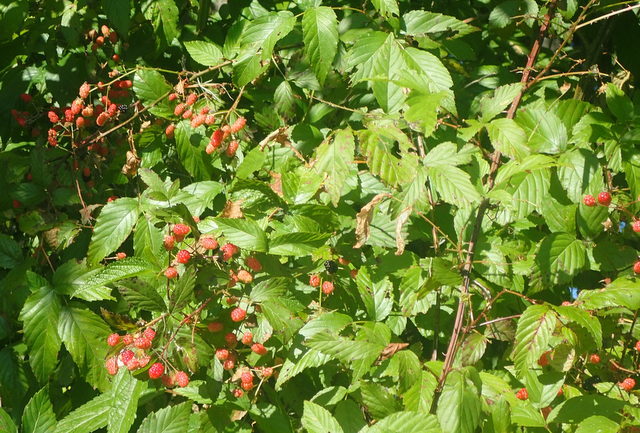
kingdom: Plantae
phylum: Tracheophyta
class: Magnoliopsida
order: Rosales
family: Rosaceae
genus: Rubus
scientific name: Rubus pensilvanicus
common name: Pennsylvania blackberry
